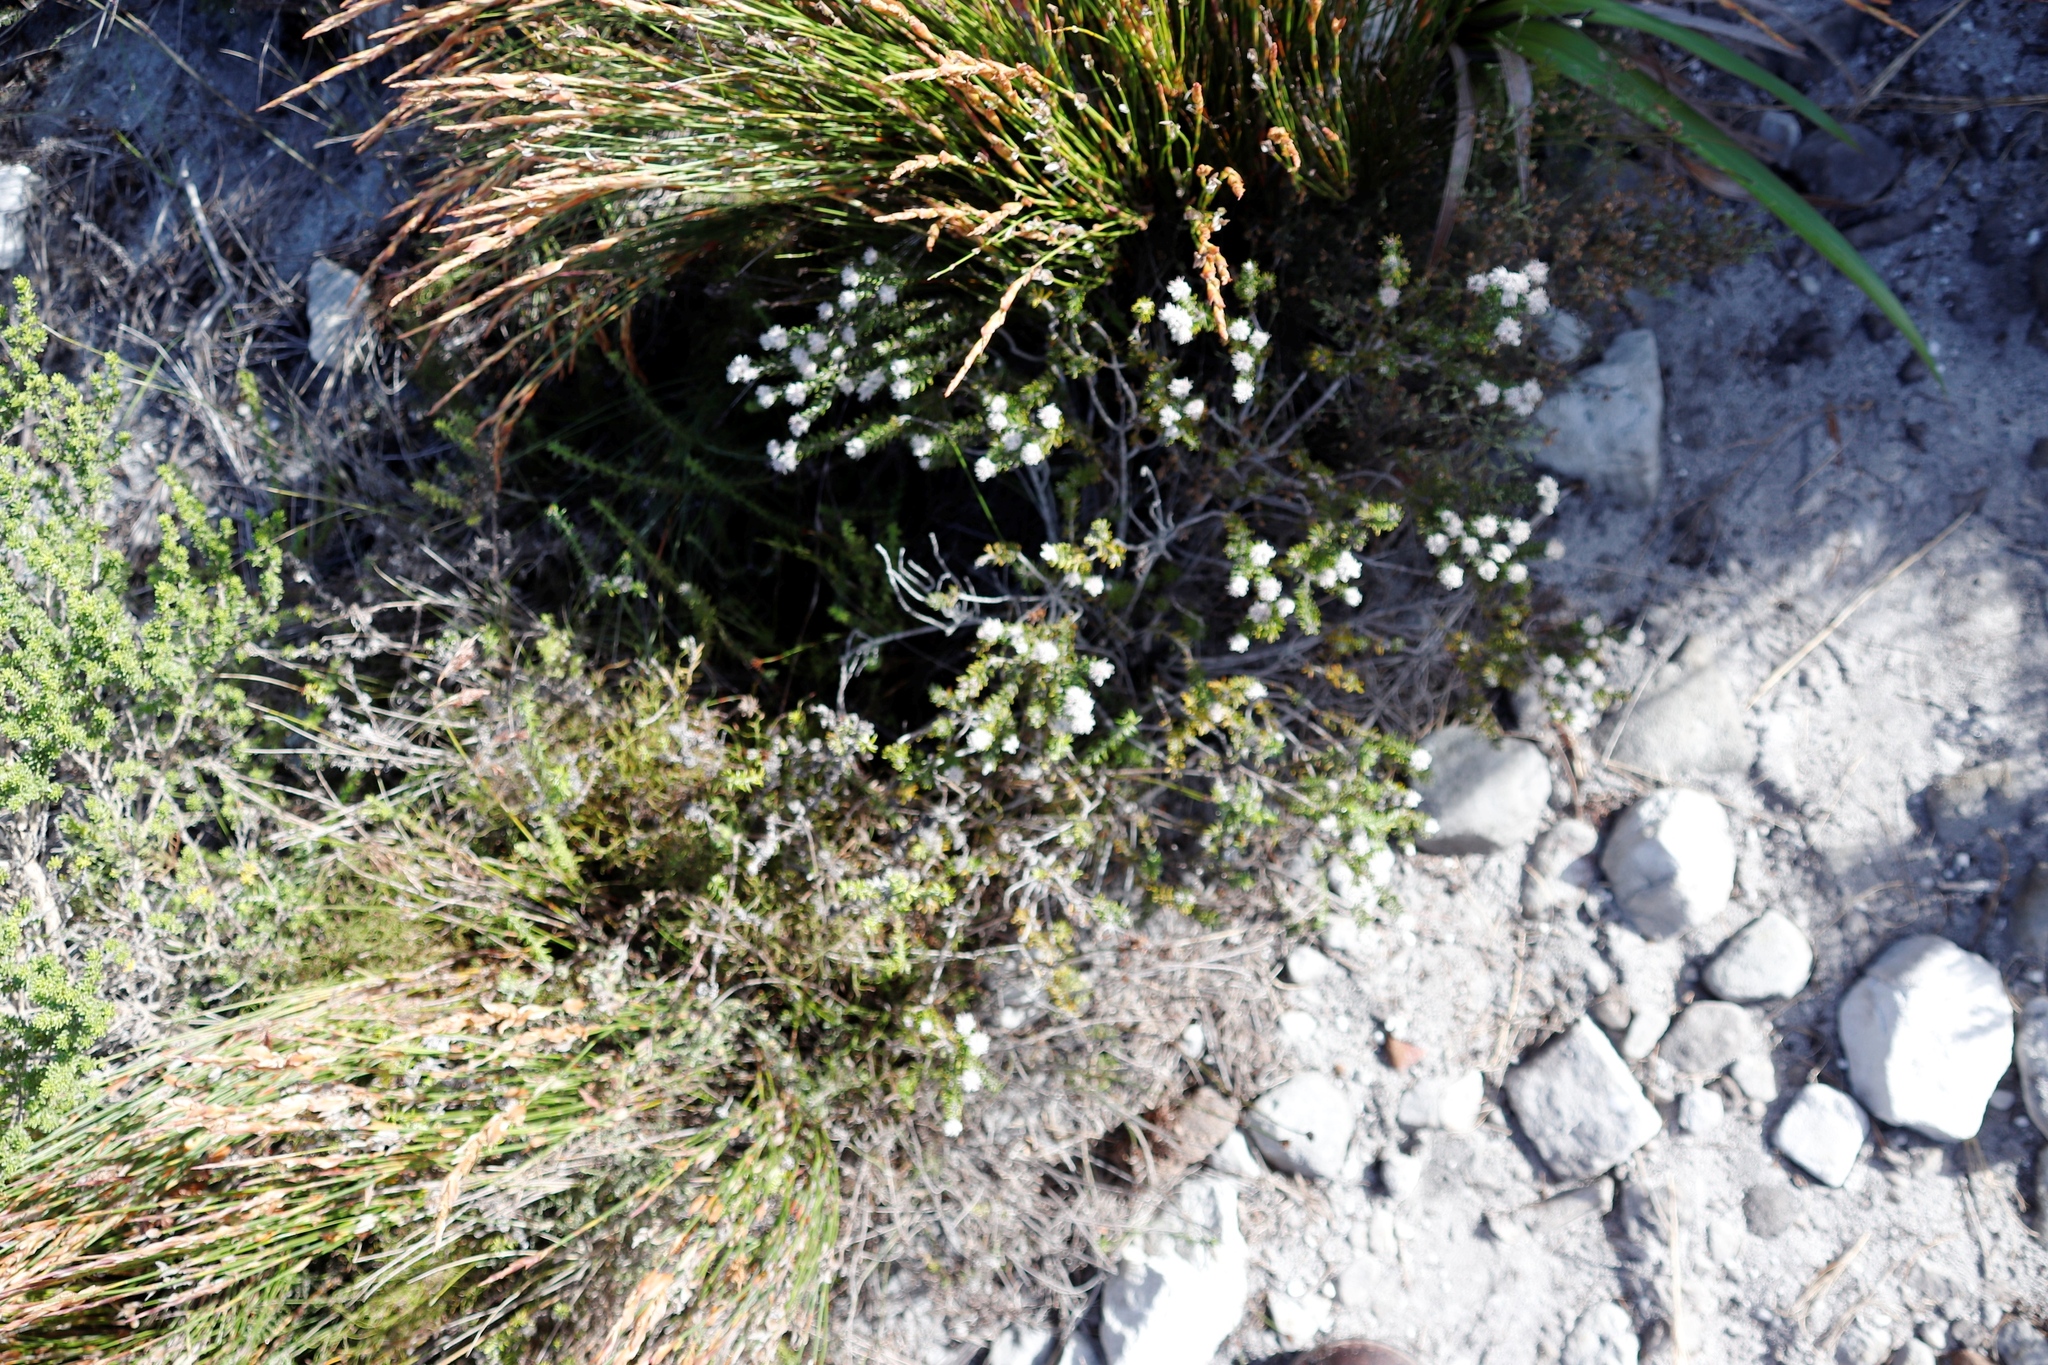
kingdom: Plantae
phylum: Tracheophyta
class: Magnoliopsida
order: Rosales
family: Rhamnaceae
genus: Trichocephalus
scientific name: Trichocephalus stipularis
